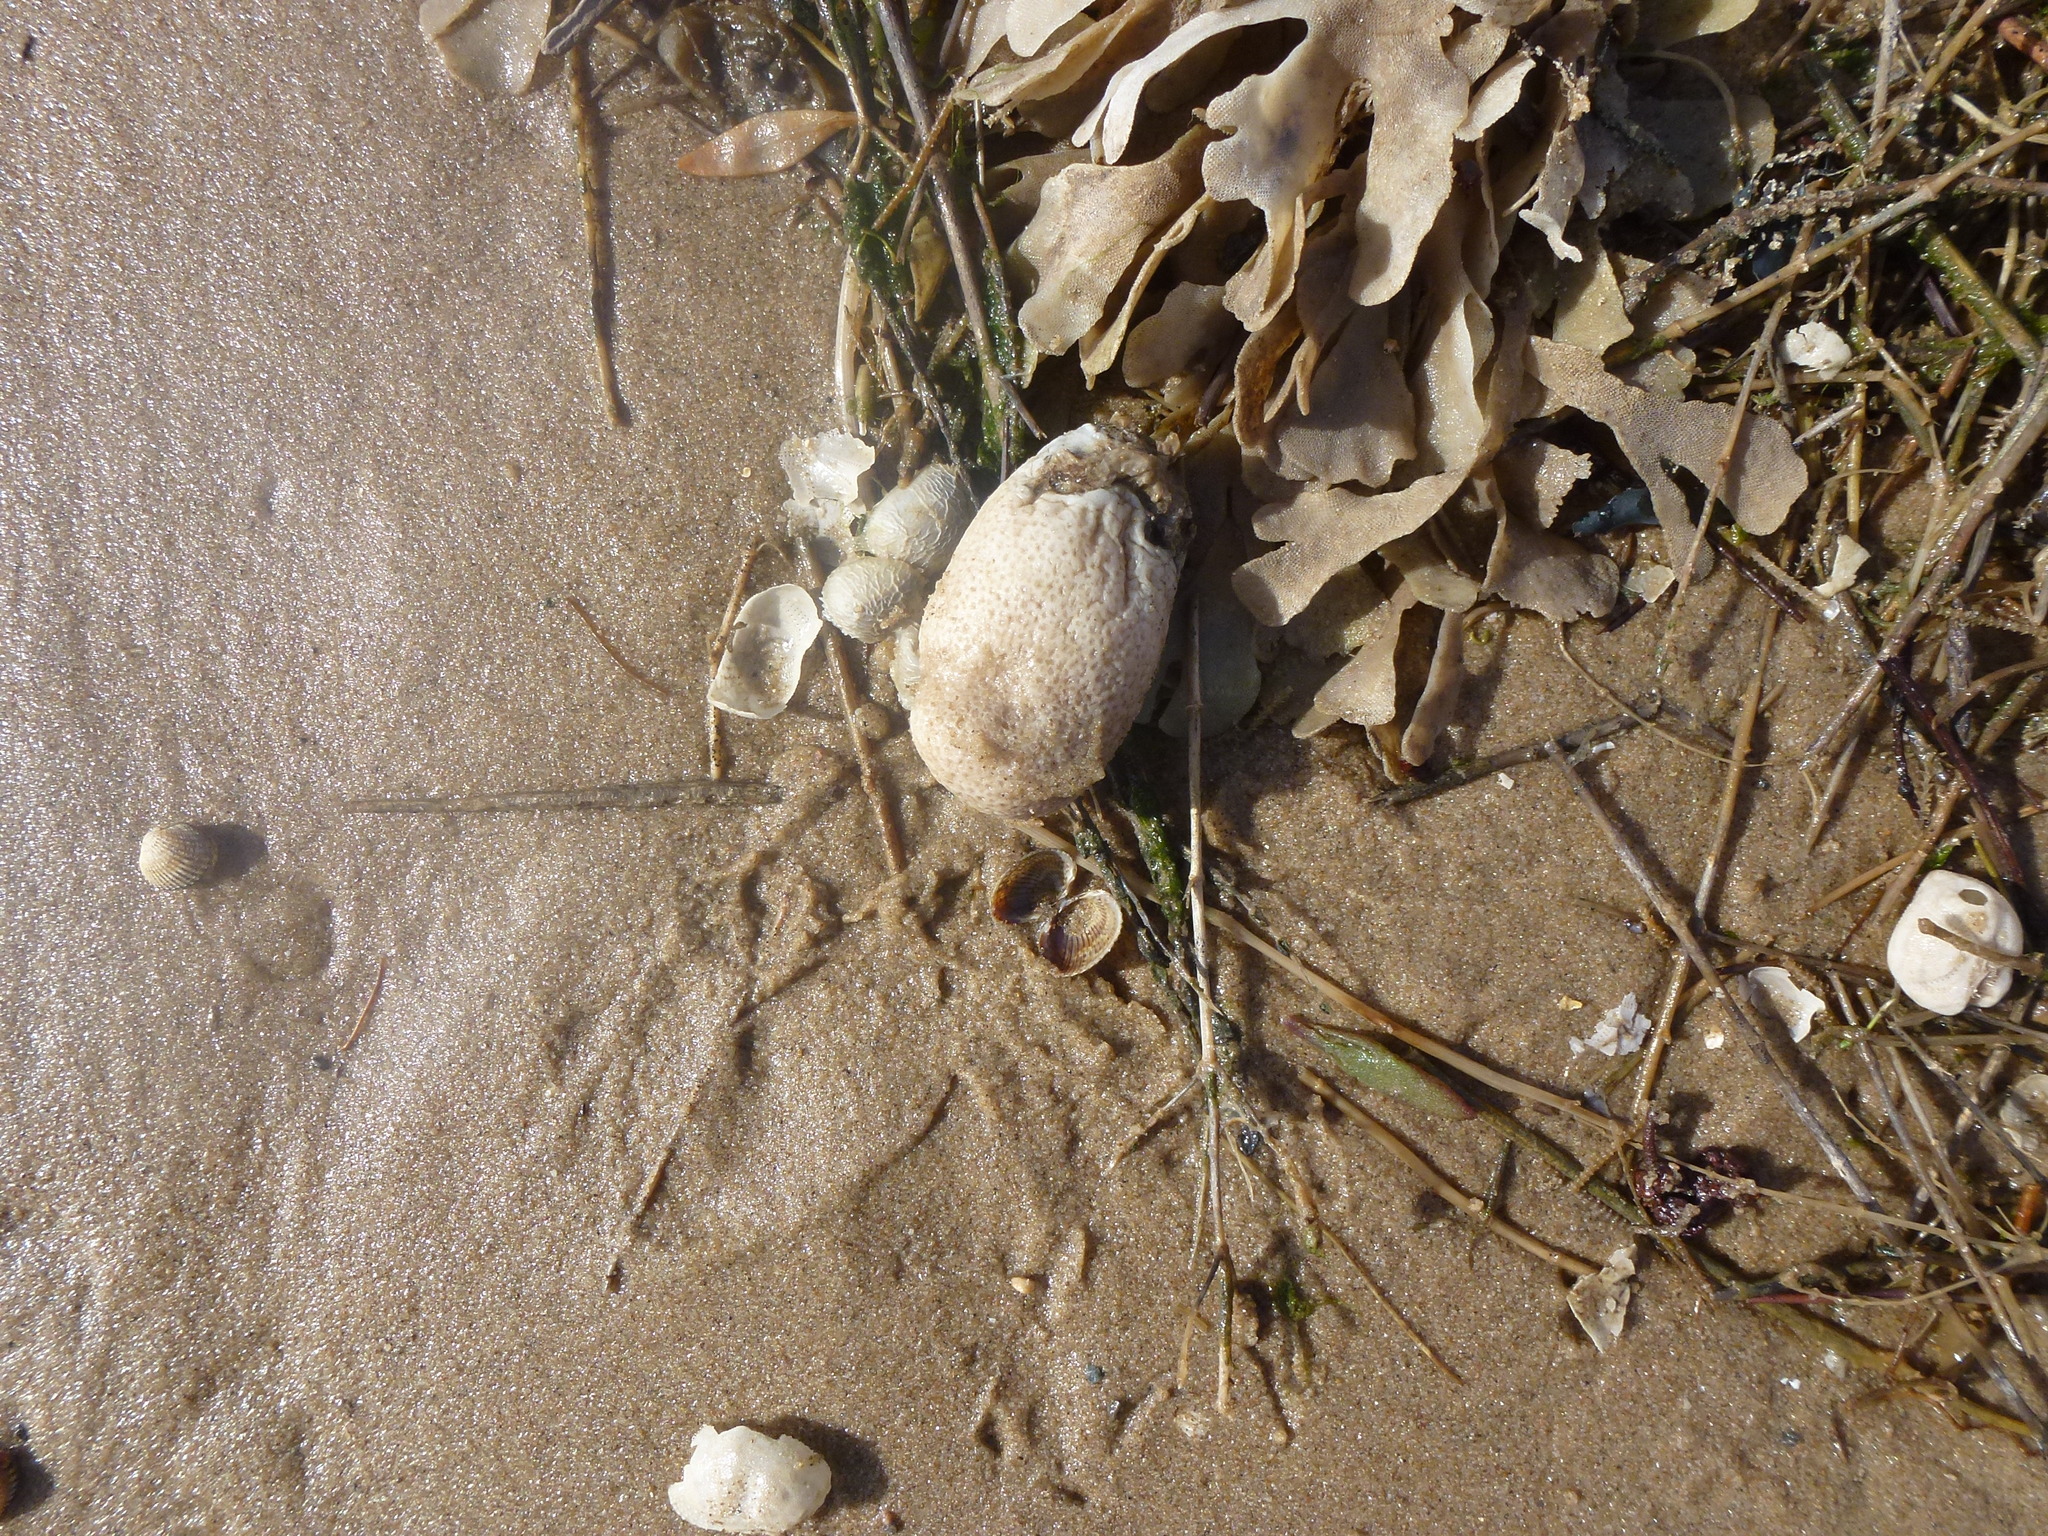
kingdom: Animalia
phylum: Cnidaria
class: Anthozoa
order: Malacalcyonacea
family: Alcyoniidae
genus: Alcyonium
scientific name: Alcyonium digitatum
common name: Dead man's fingers
